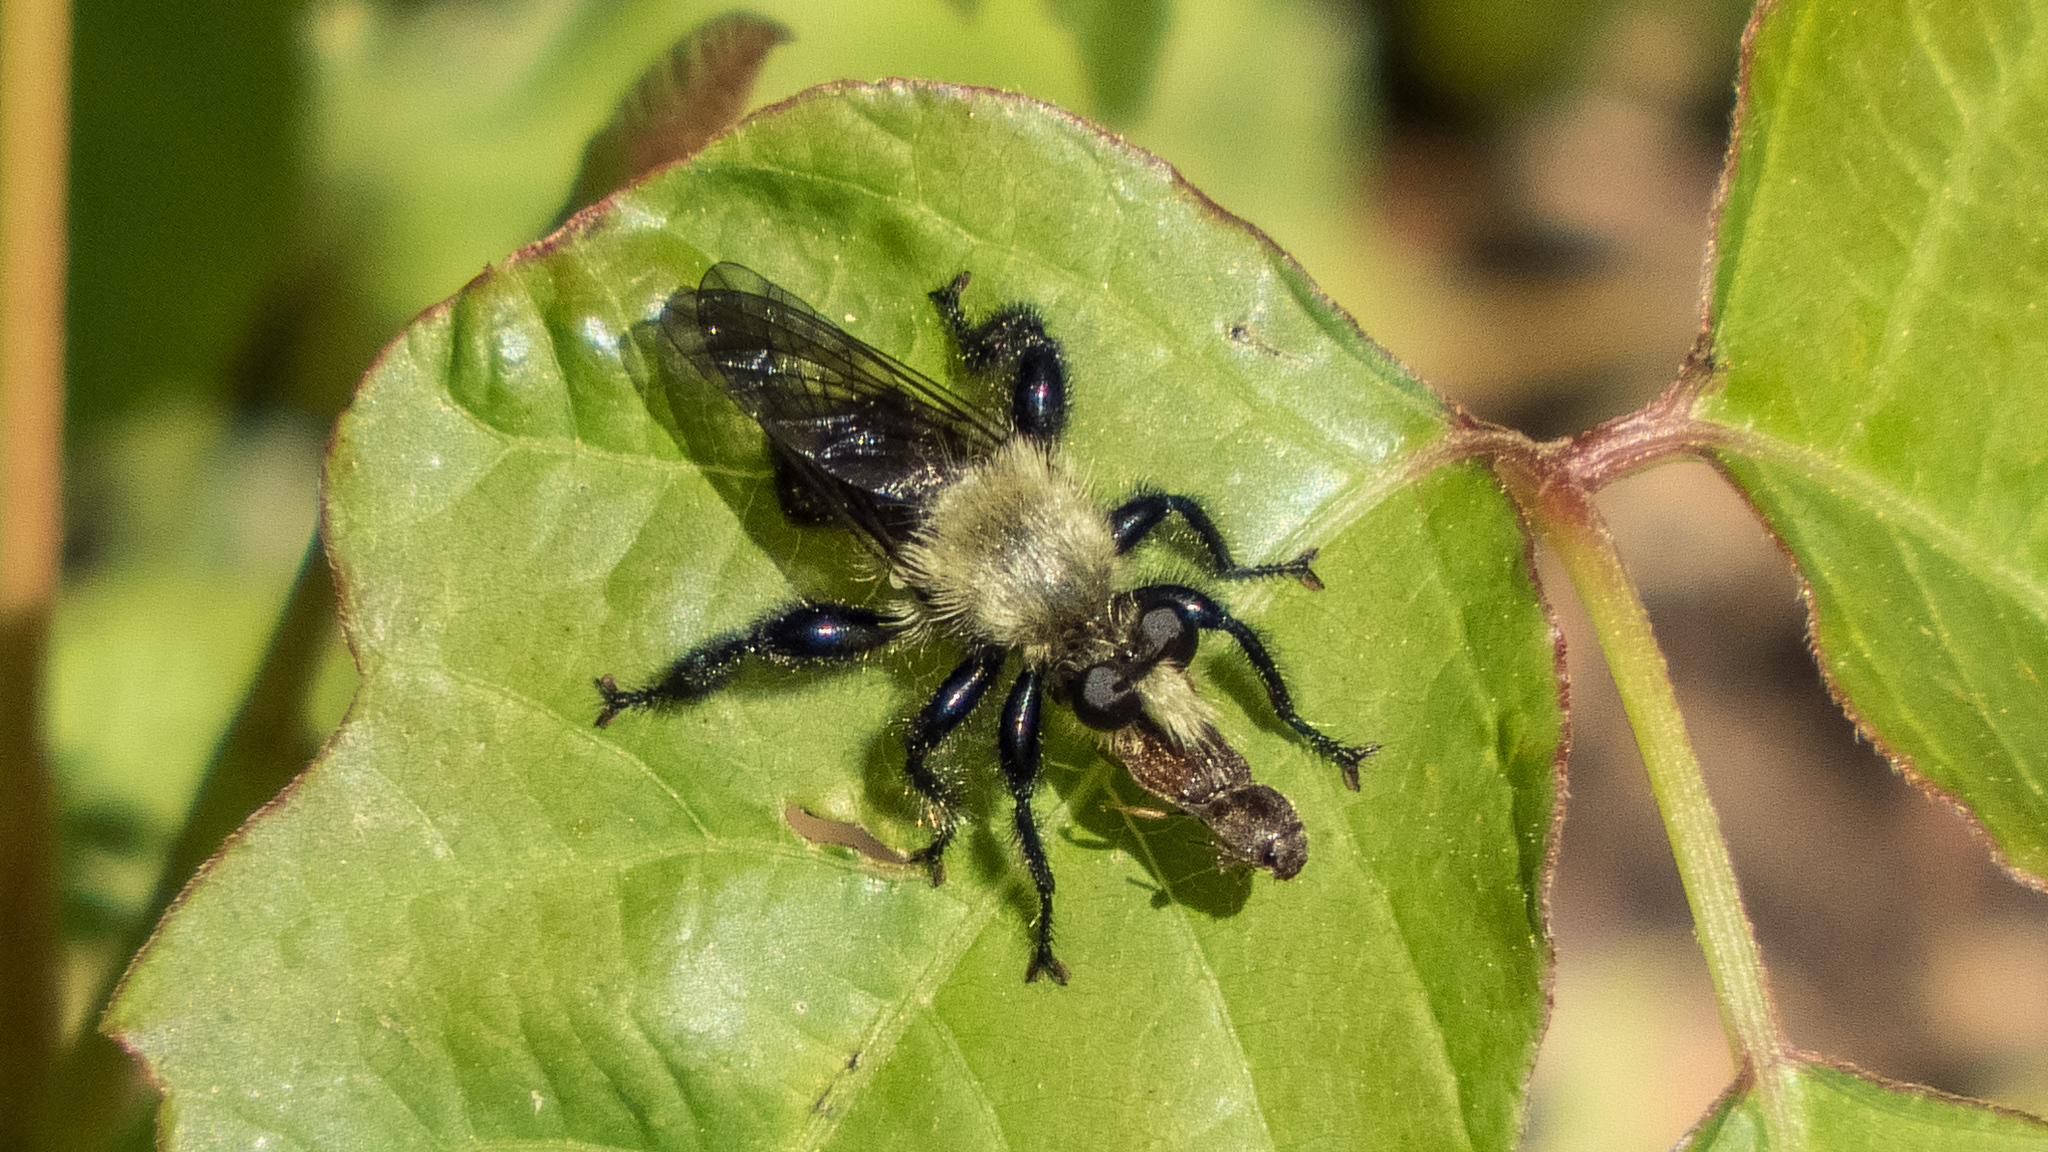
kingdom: Animalia
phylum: Arthropoda
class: Insecta
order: Diptera
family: Asilidae
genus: Laphria
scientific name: Laphria flavicollis
